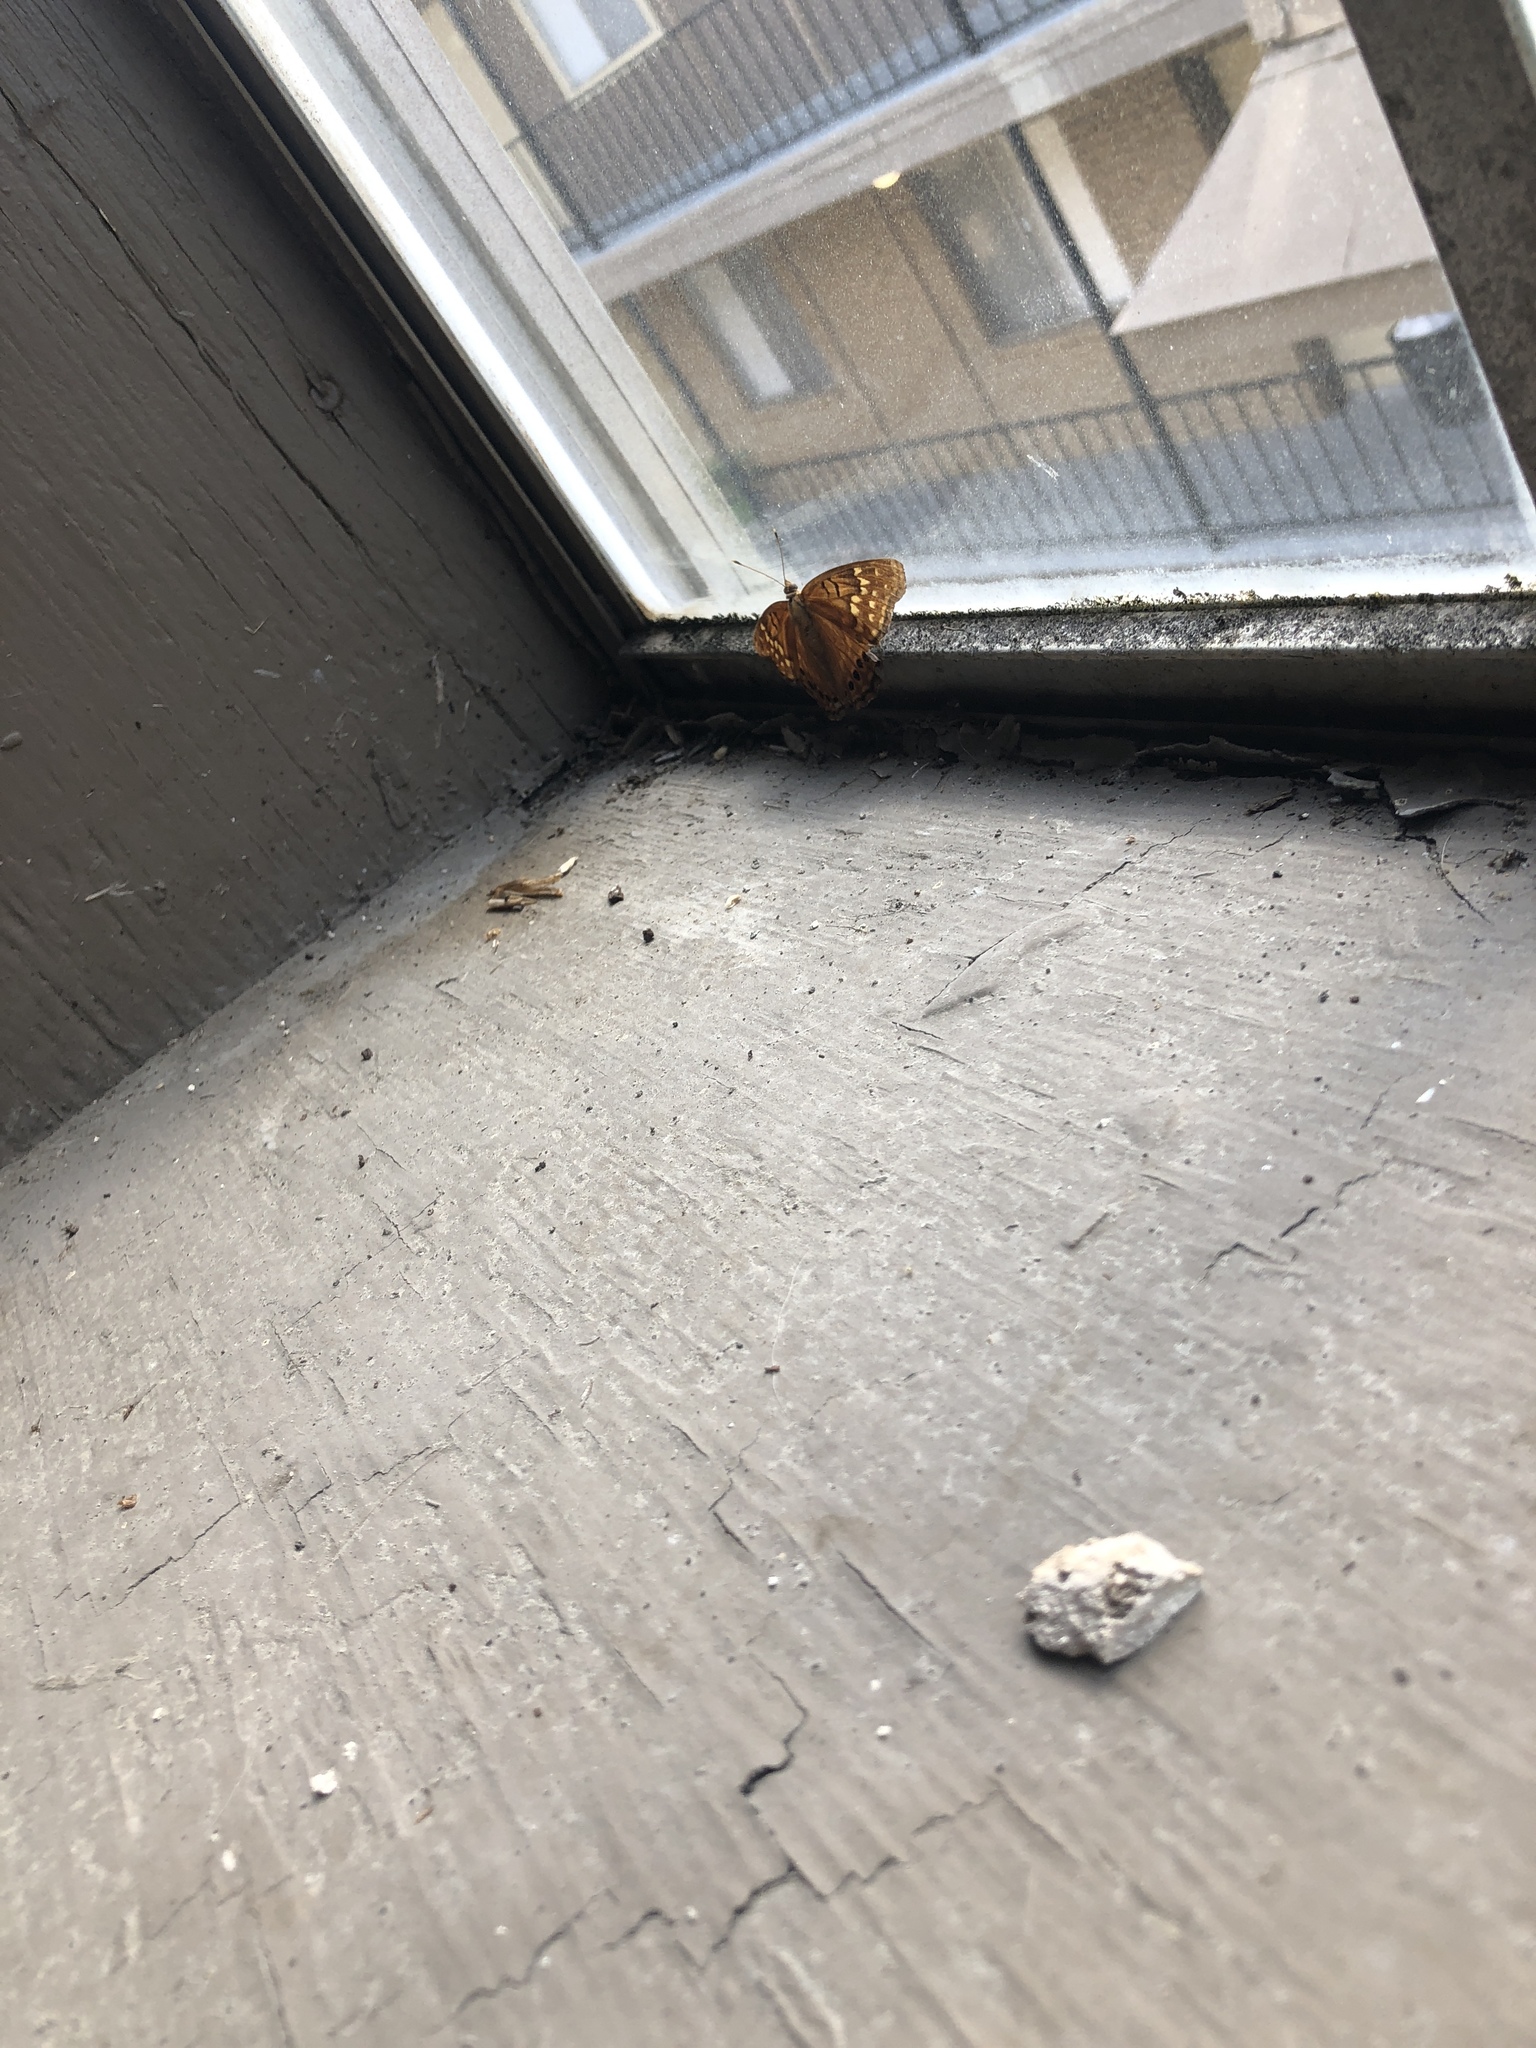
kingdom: Animalia
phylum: Arthropoda
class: Insecta
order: Lepidoptera
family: Nymphalidae
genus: Asterocampa
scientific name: Asterocampa clyton
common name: Tawny emperor
